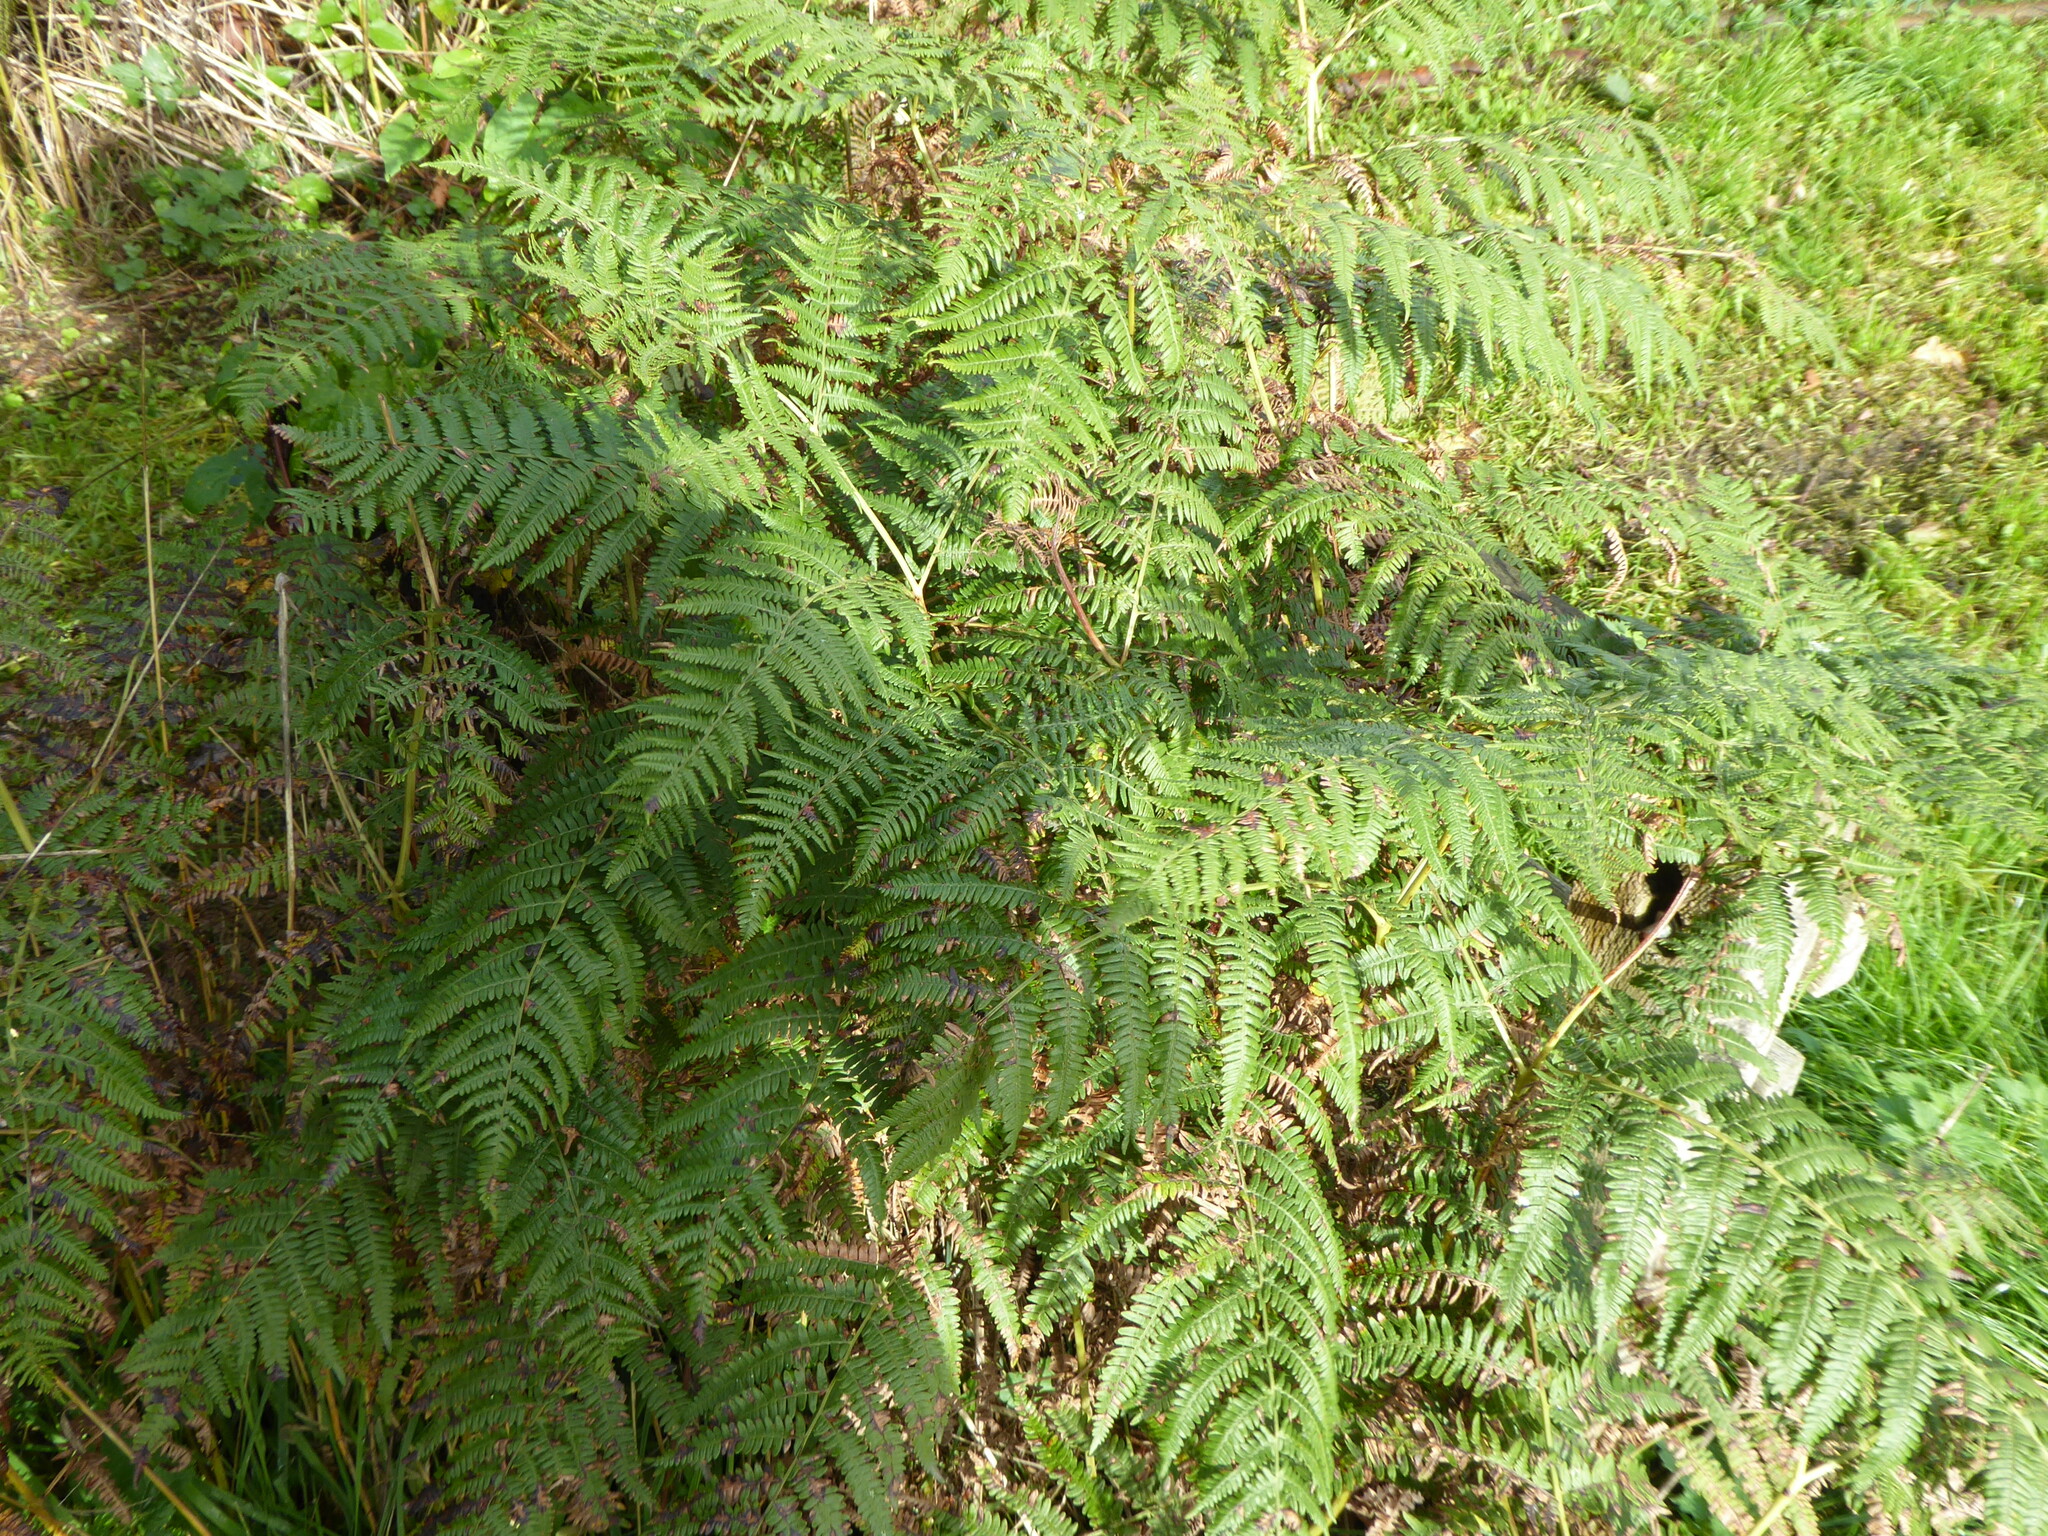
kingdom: Plantae
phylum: Tracheophyta
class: Polypodiopsida
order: Polypodiales
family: Dennstaedtiaceae
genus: Pteridium
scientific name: Pteridium aquilinum
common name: Bracken
